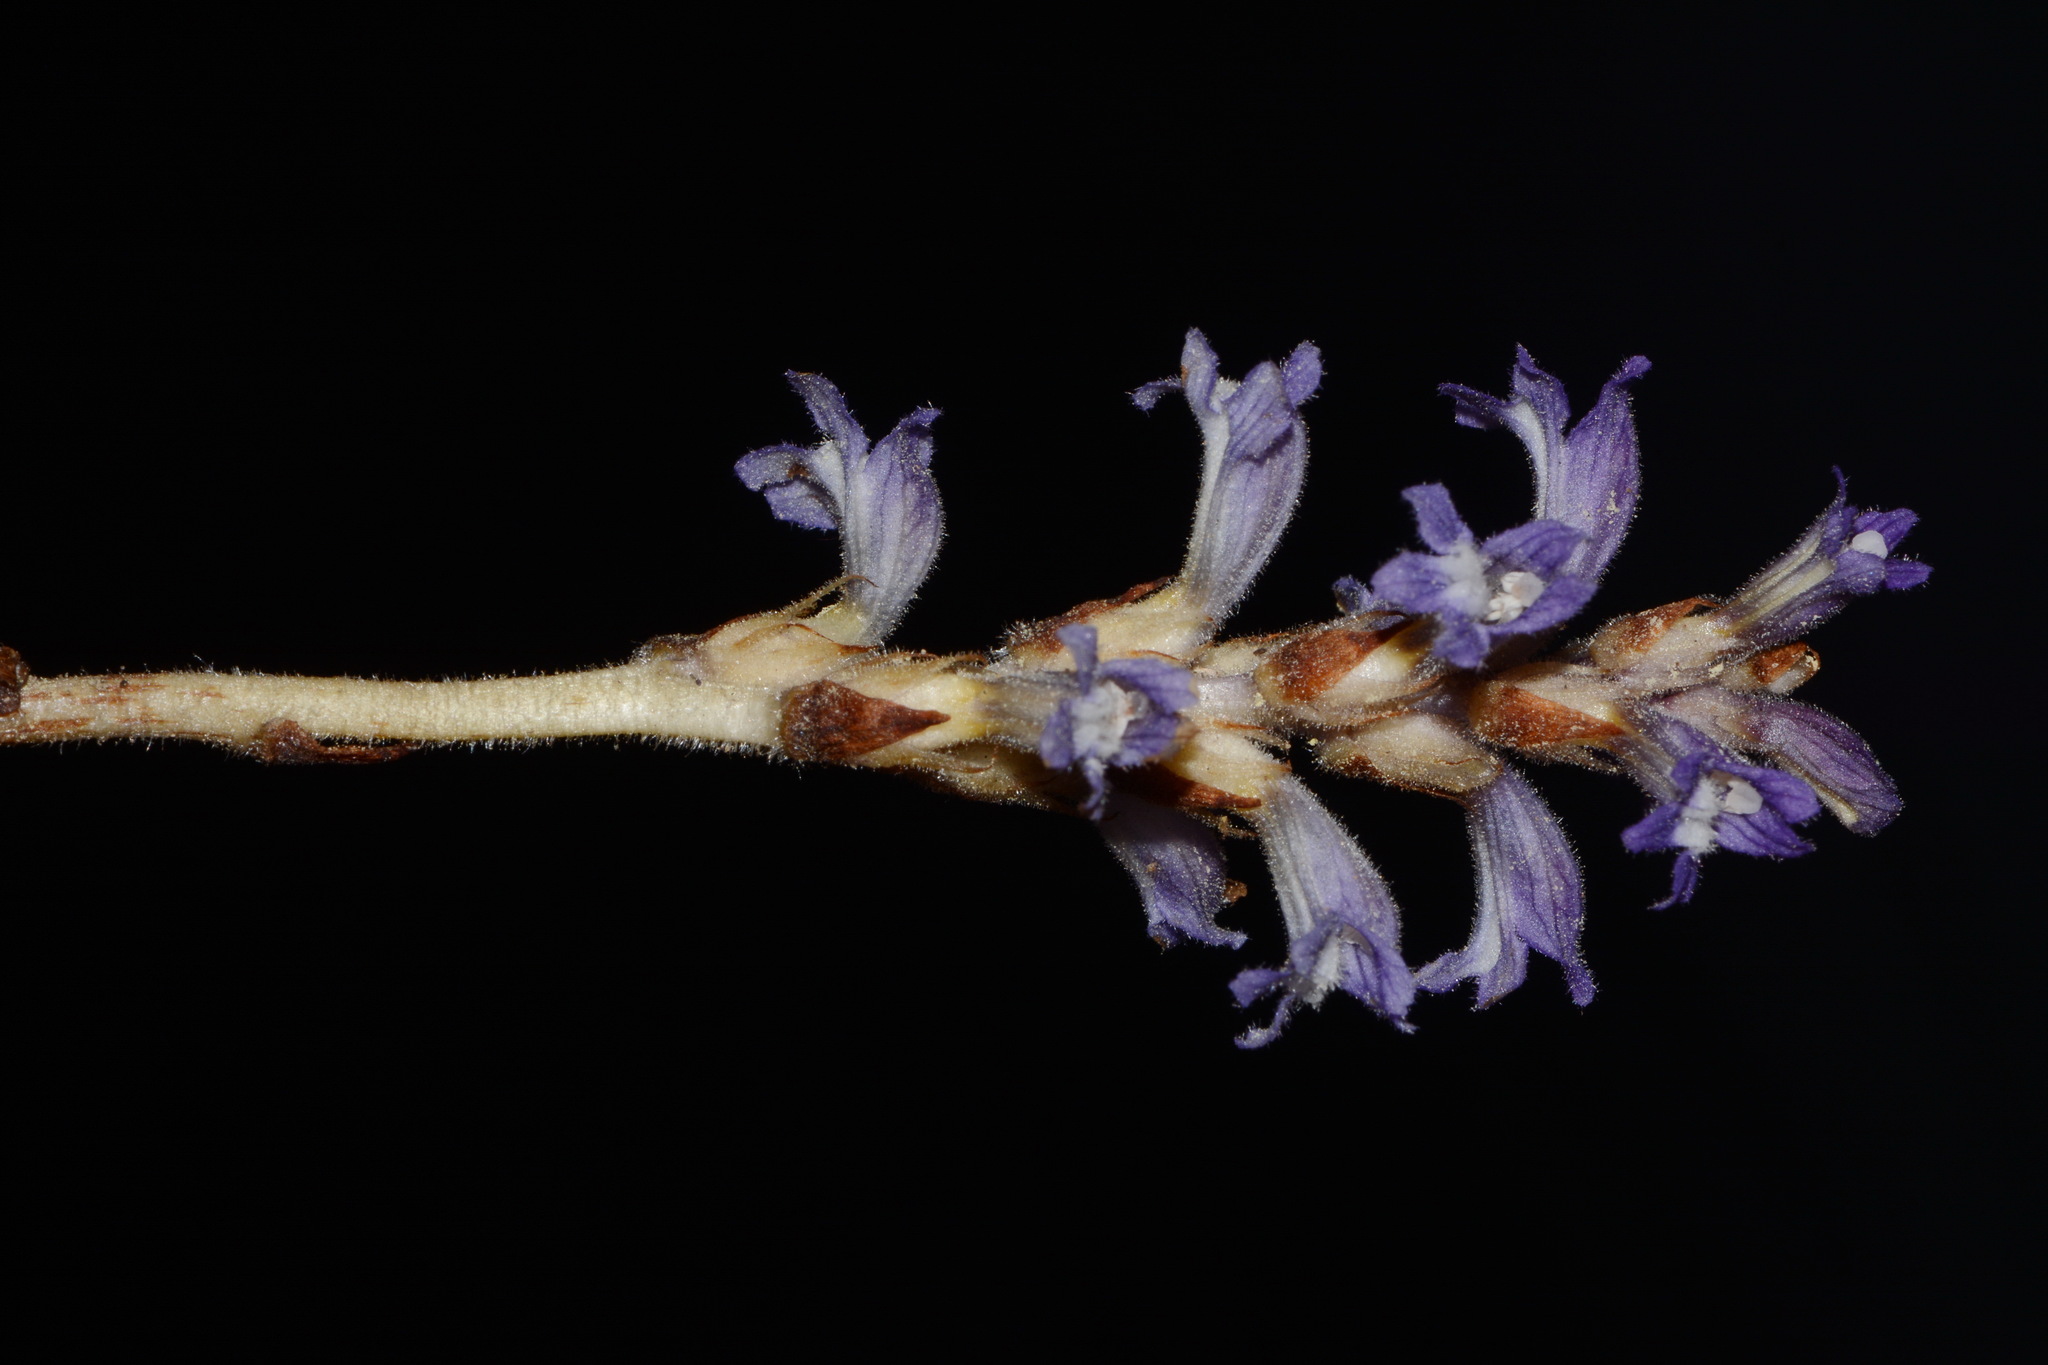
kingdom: Plantae
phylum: Tracheophyta
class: Magnoliopsida
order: Lamiales
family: Orobanchaceae
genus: Phelipanche
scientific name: Phelipanche mutelii
